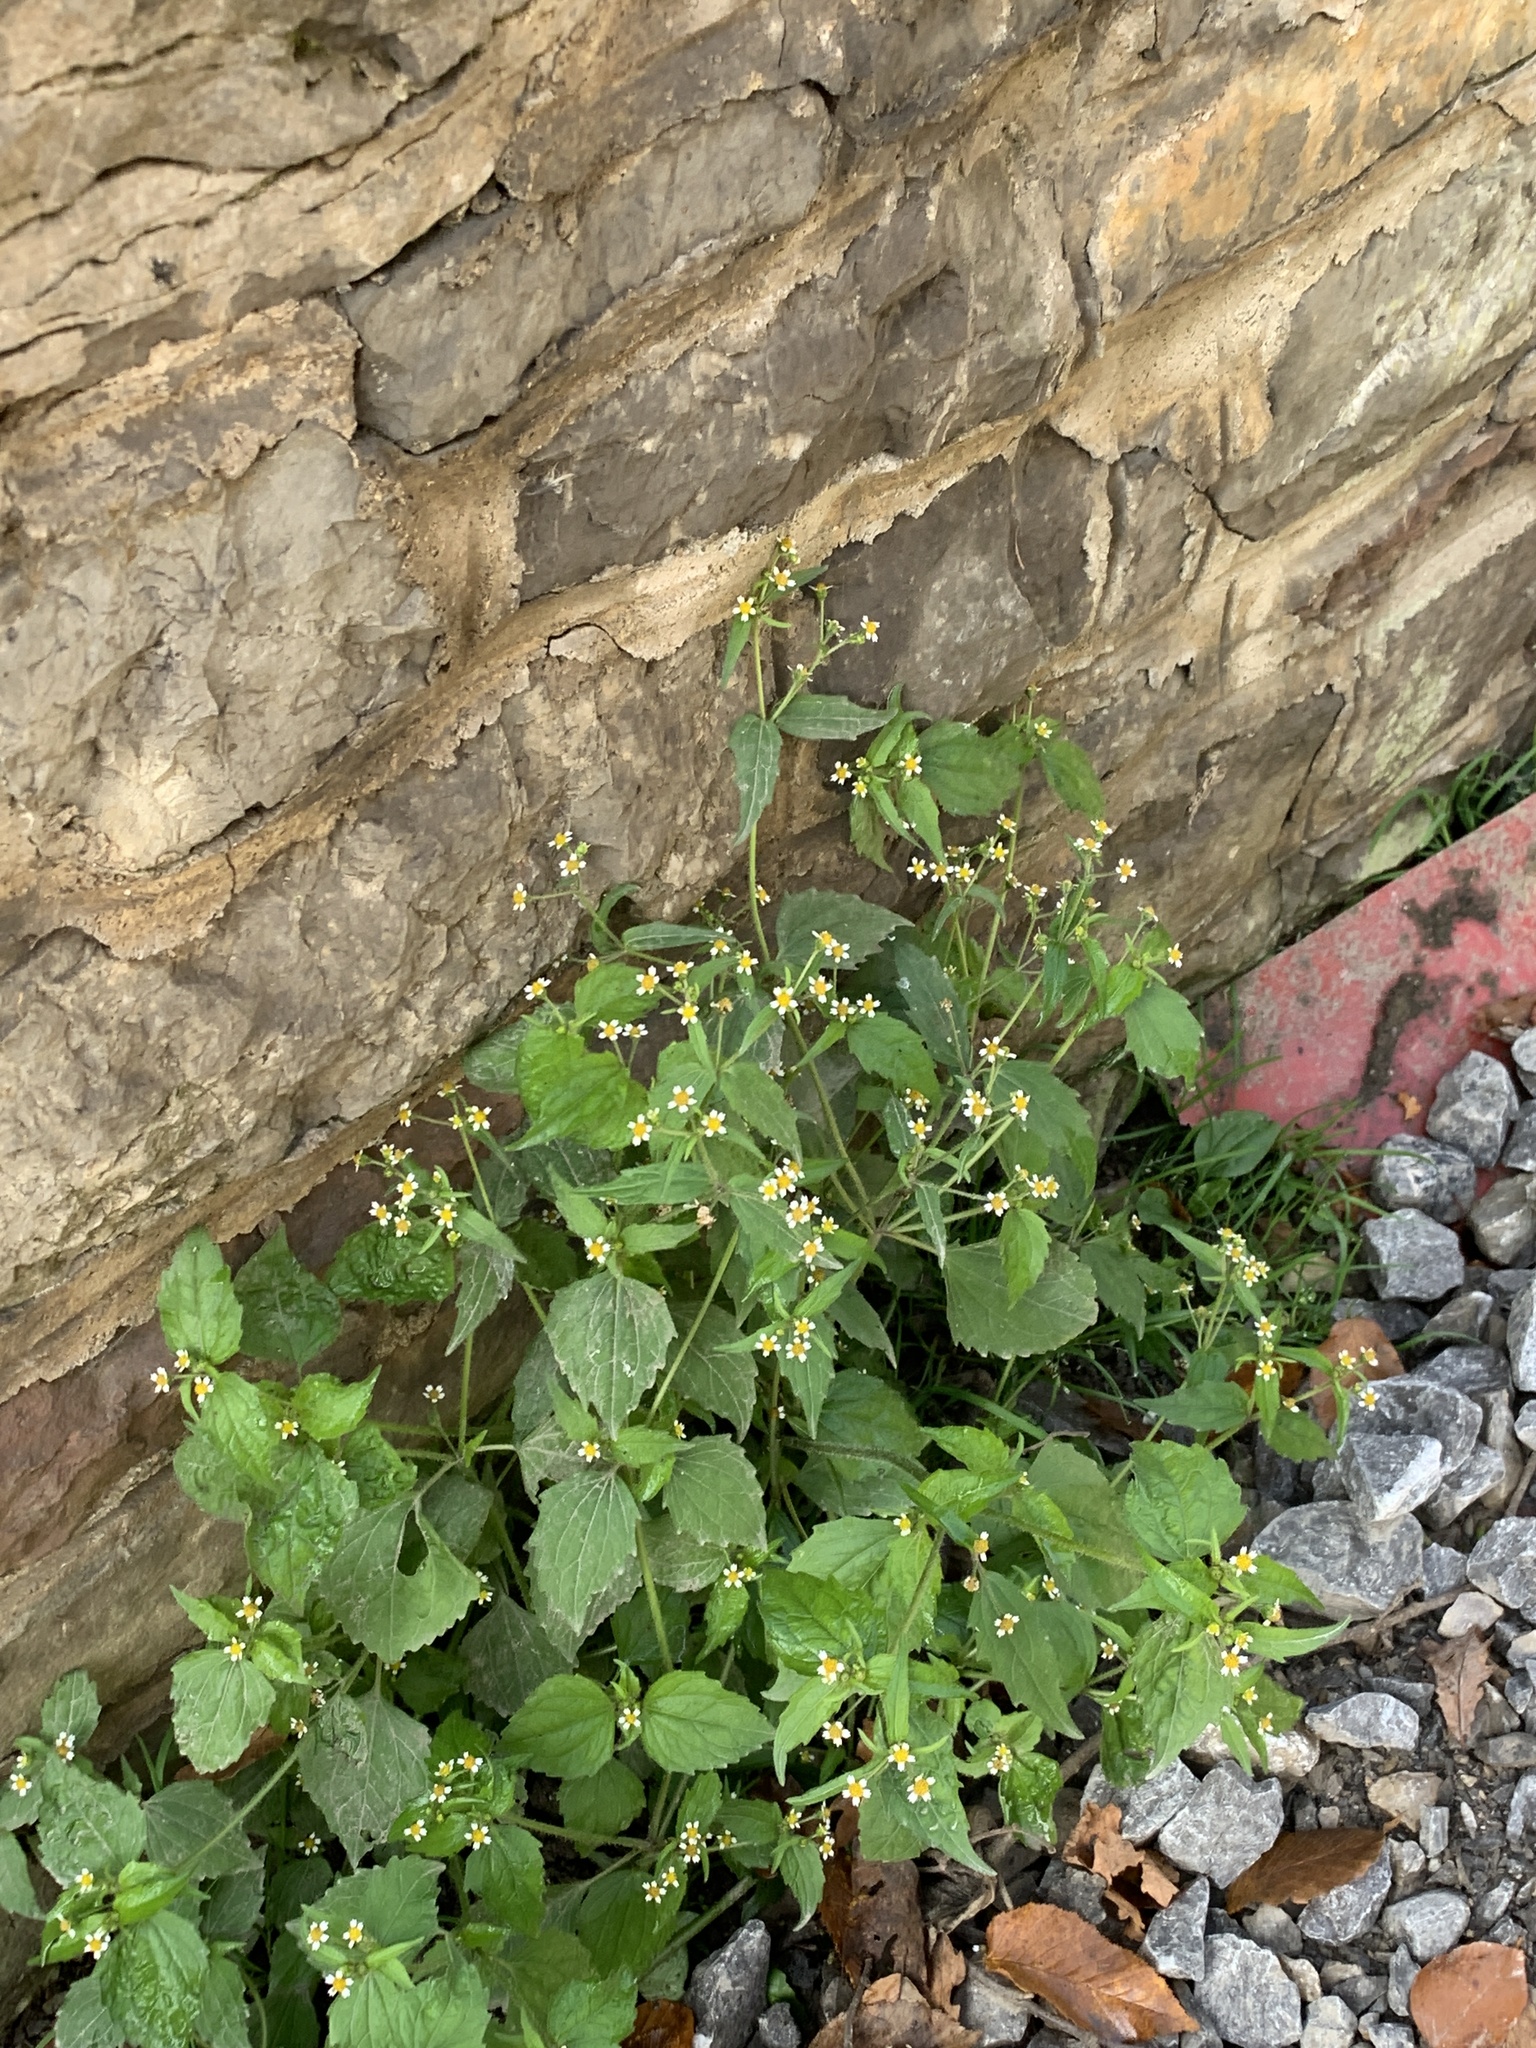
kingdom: Plantae
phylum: Tracheophyta
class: Magnoliopsida
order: Asterales
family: Asteraceae
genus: Galinsoga
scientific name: Galinsoga quadriradiata
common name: Shaggy soldier
